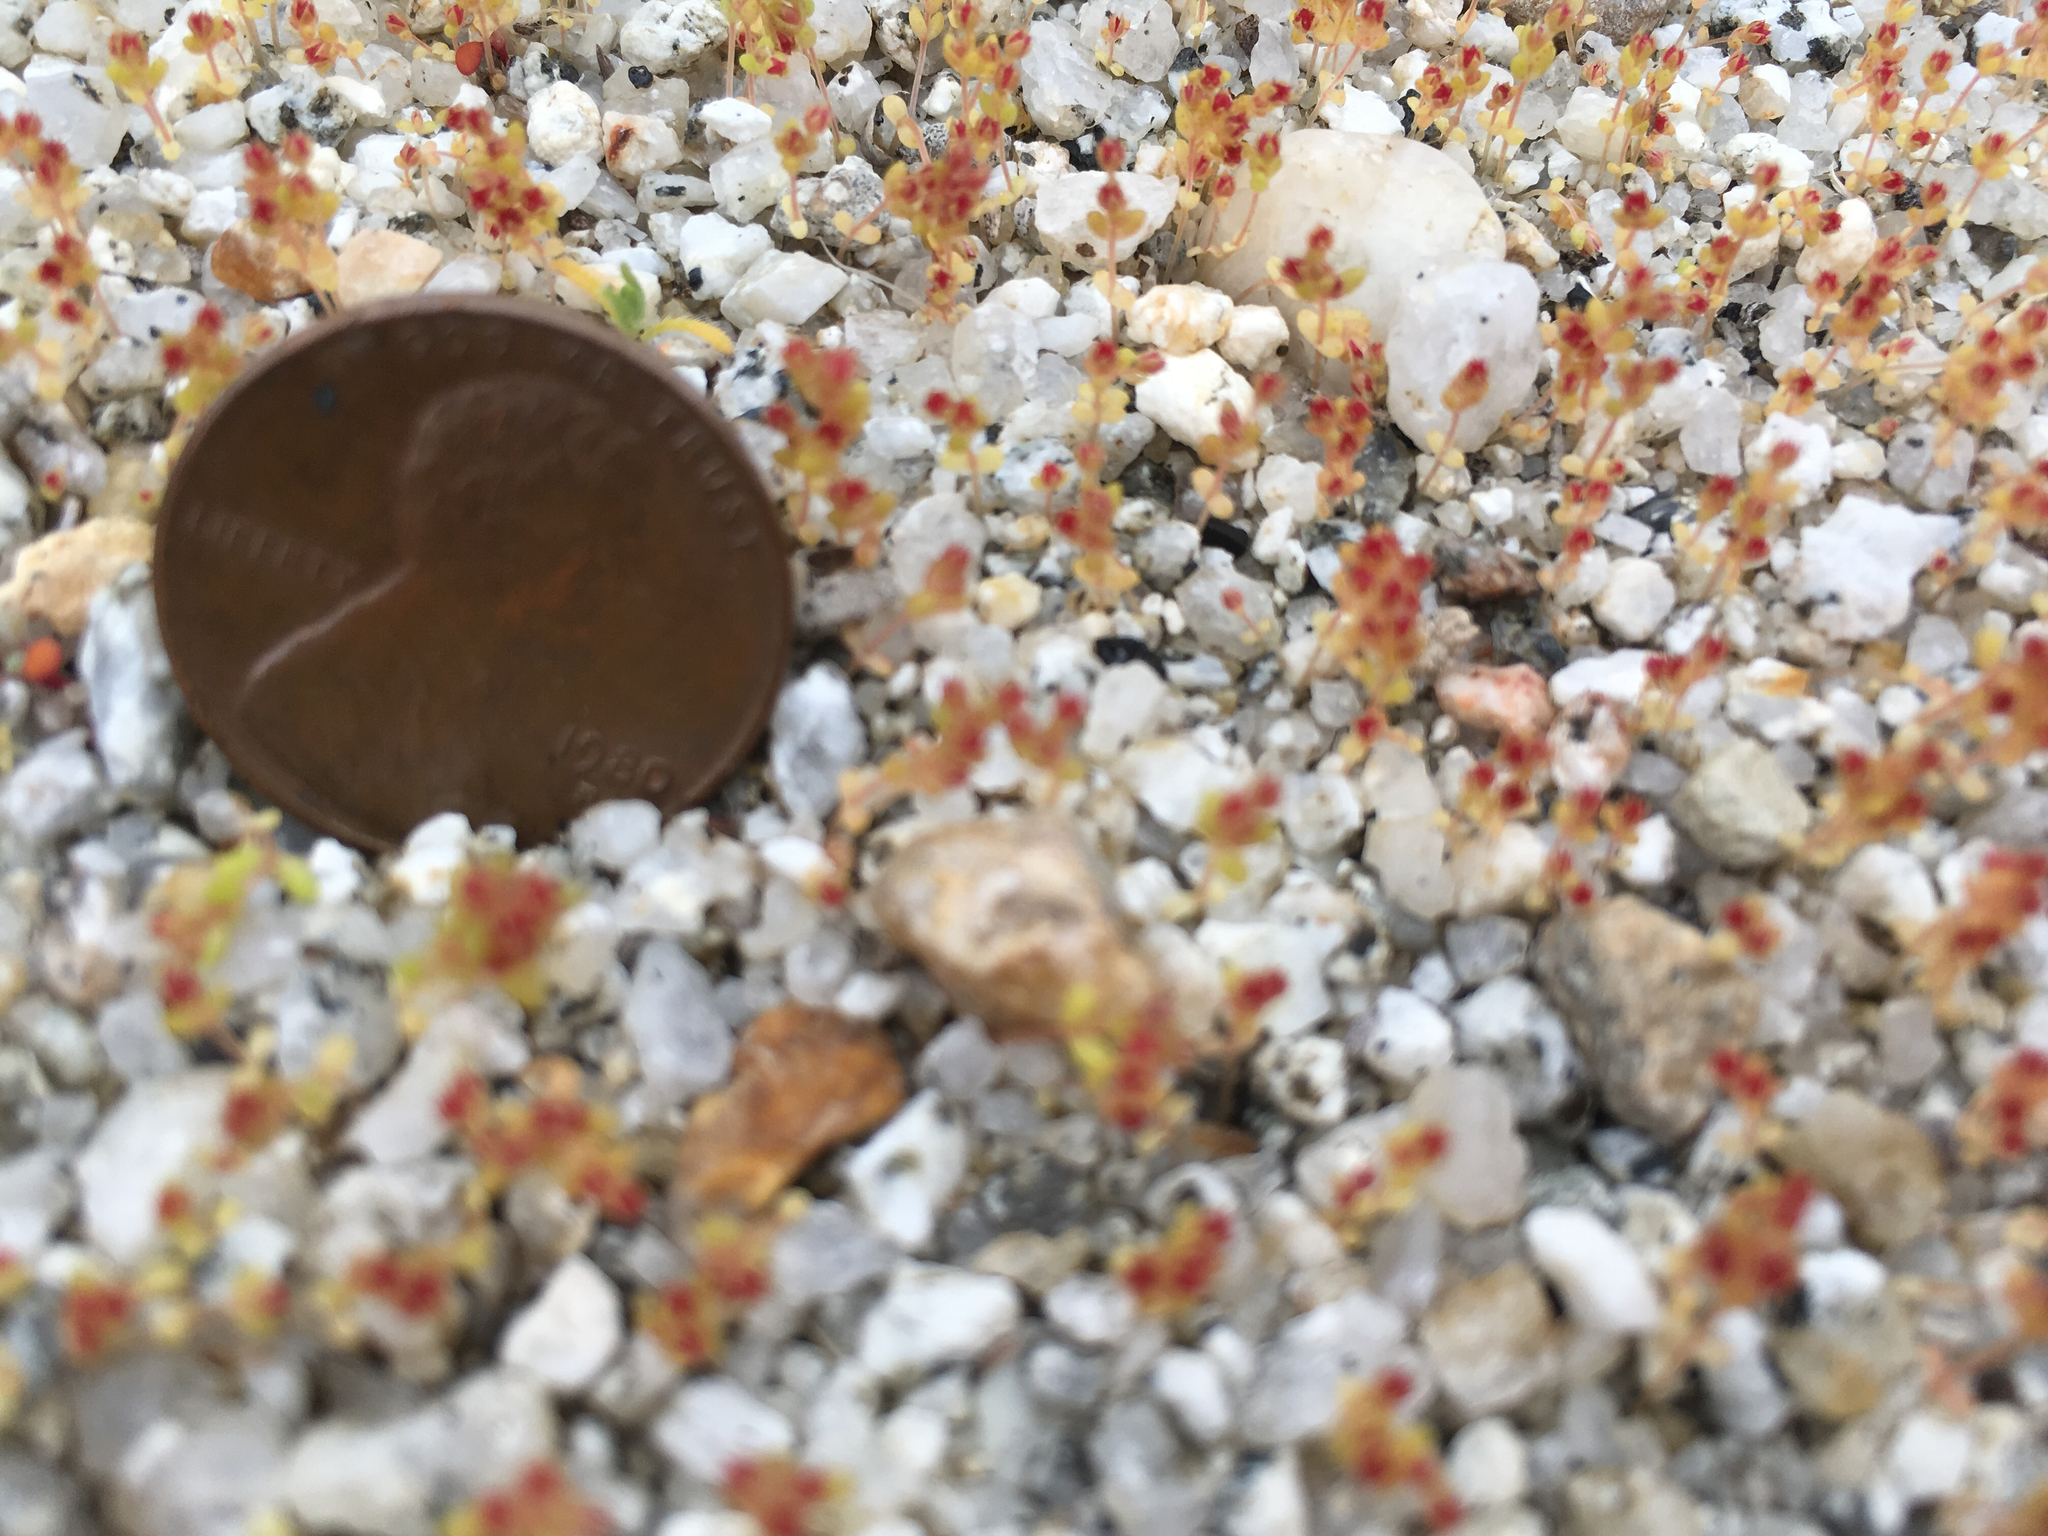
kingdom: Plantae
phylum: Tracheophyta
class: Magnoliopsida
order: Saxifragales
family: Crassulaceae
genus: Crassula
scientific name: Crassula connata
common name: Erect pygmyweed
